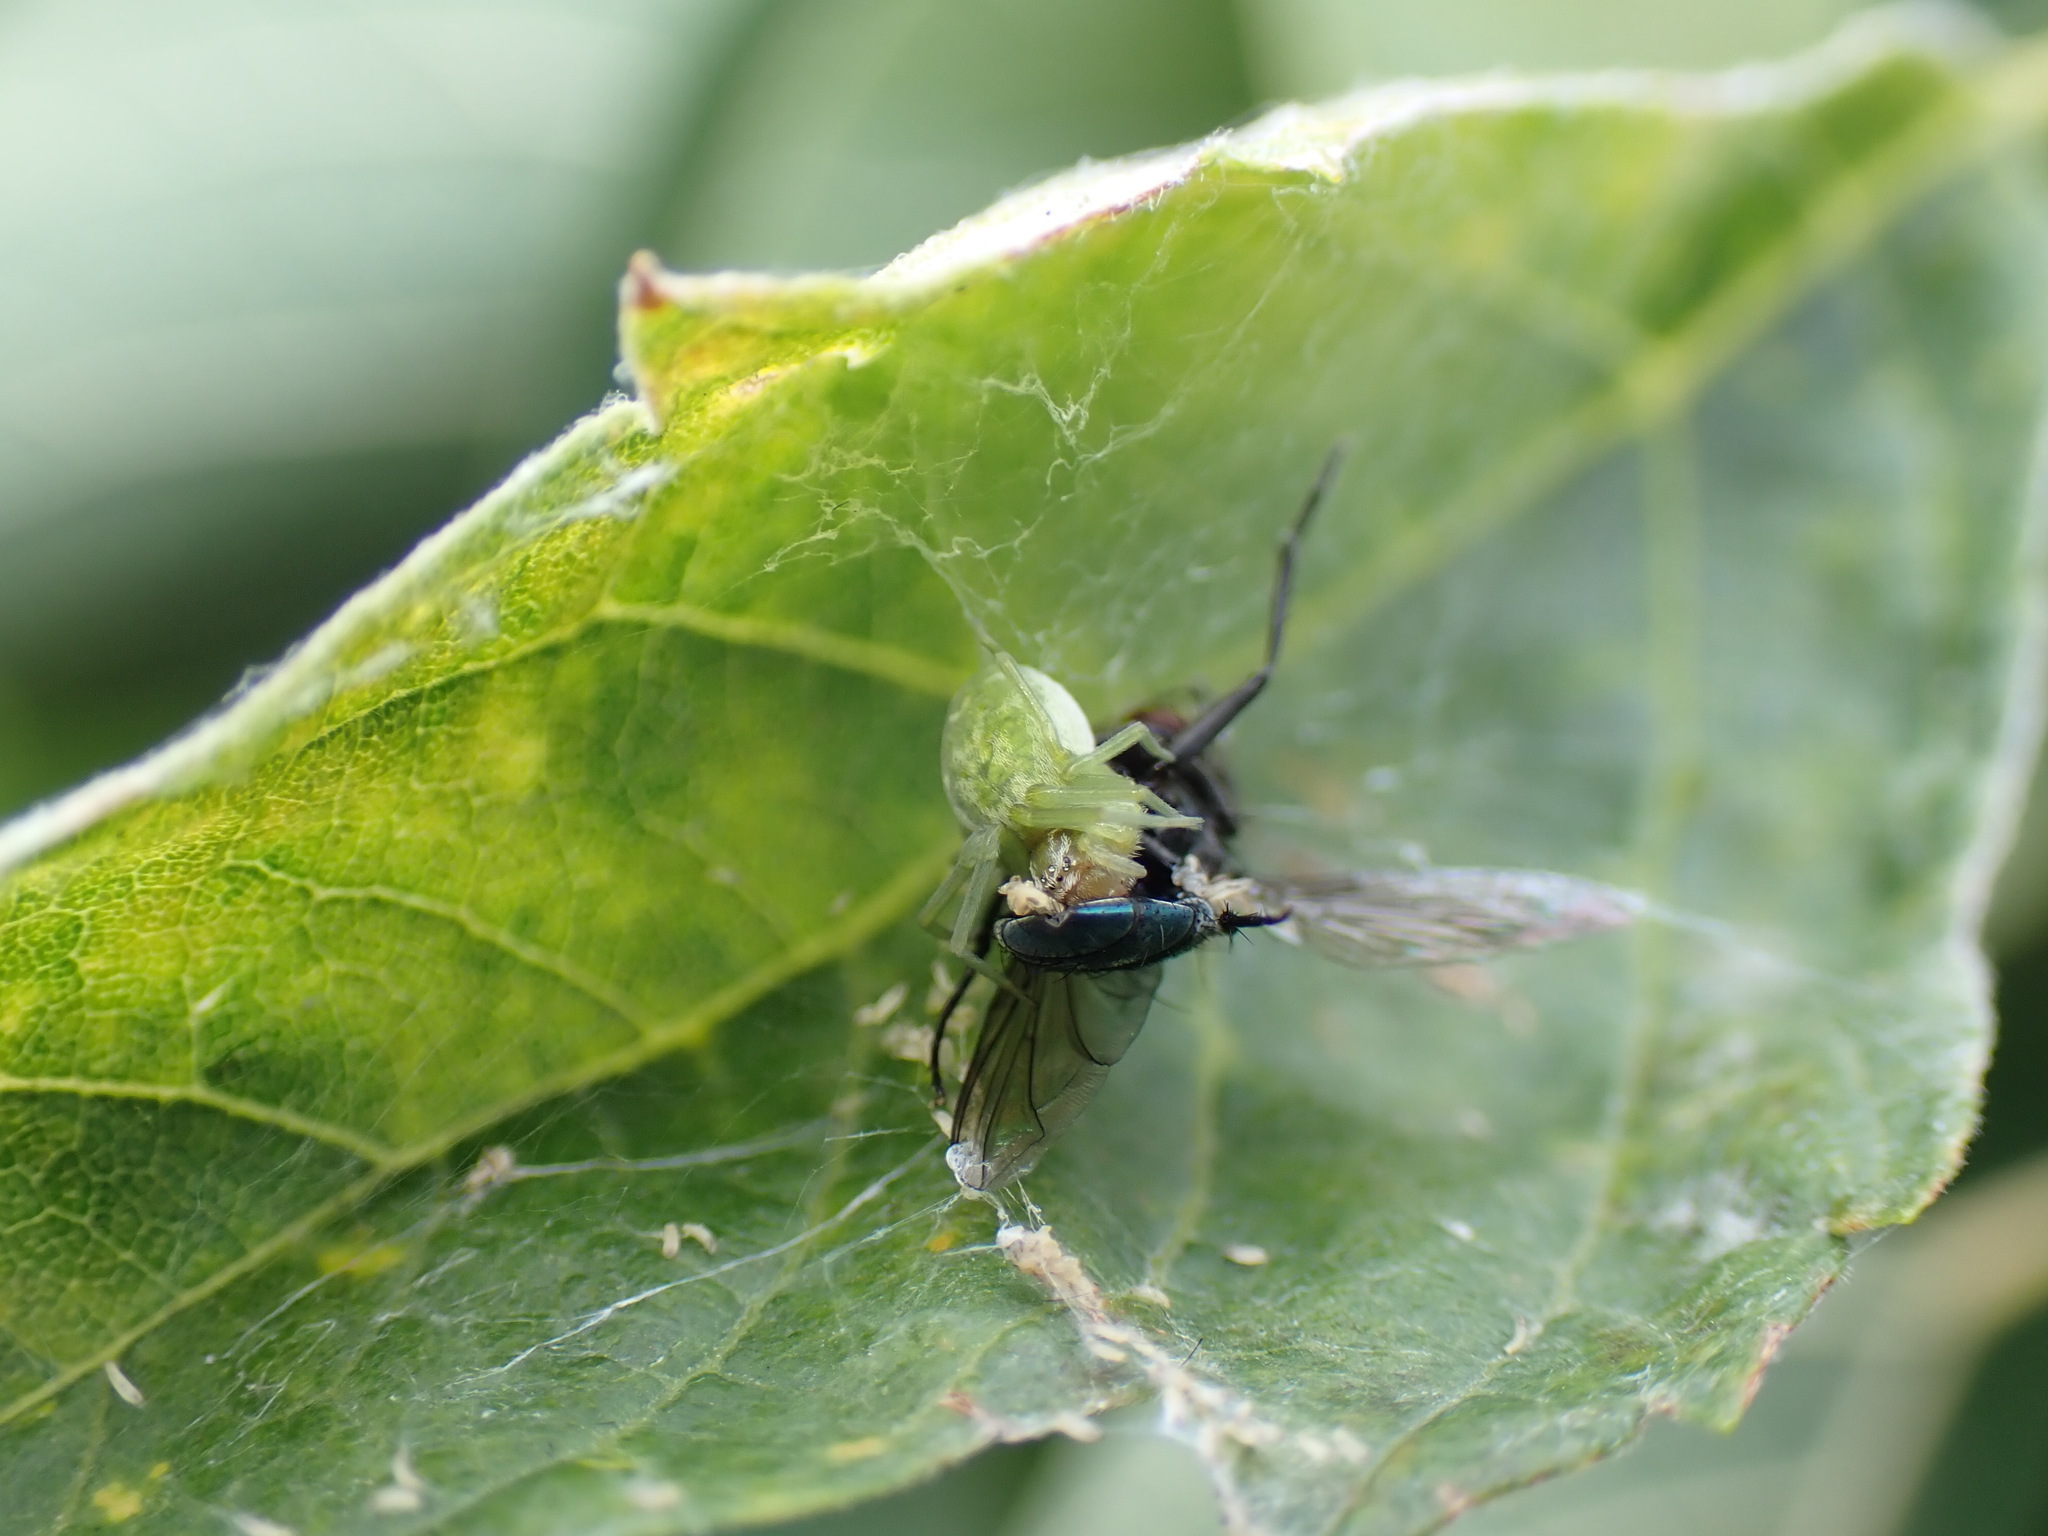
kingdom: Animalia
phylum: Arthropoda
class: Arachnida
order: Araneae
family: Dictynidae
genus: Nigma
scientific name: Nigma walckenaeri
